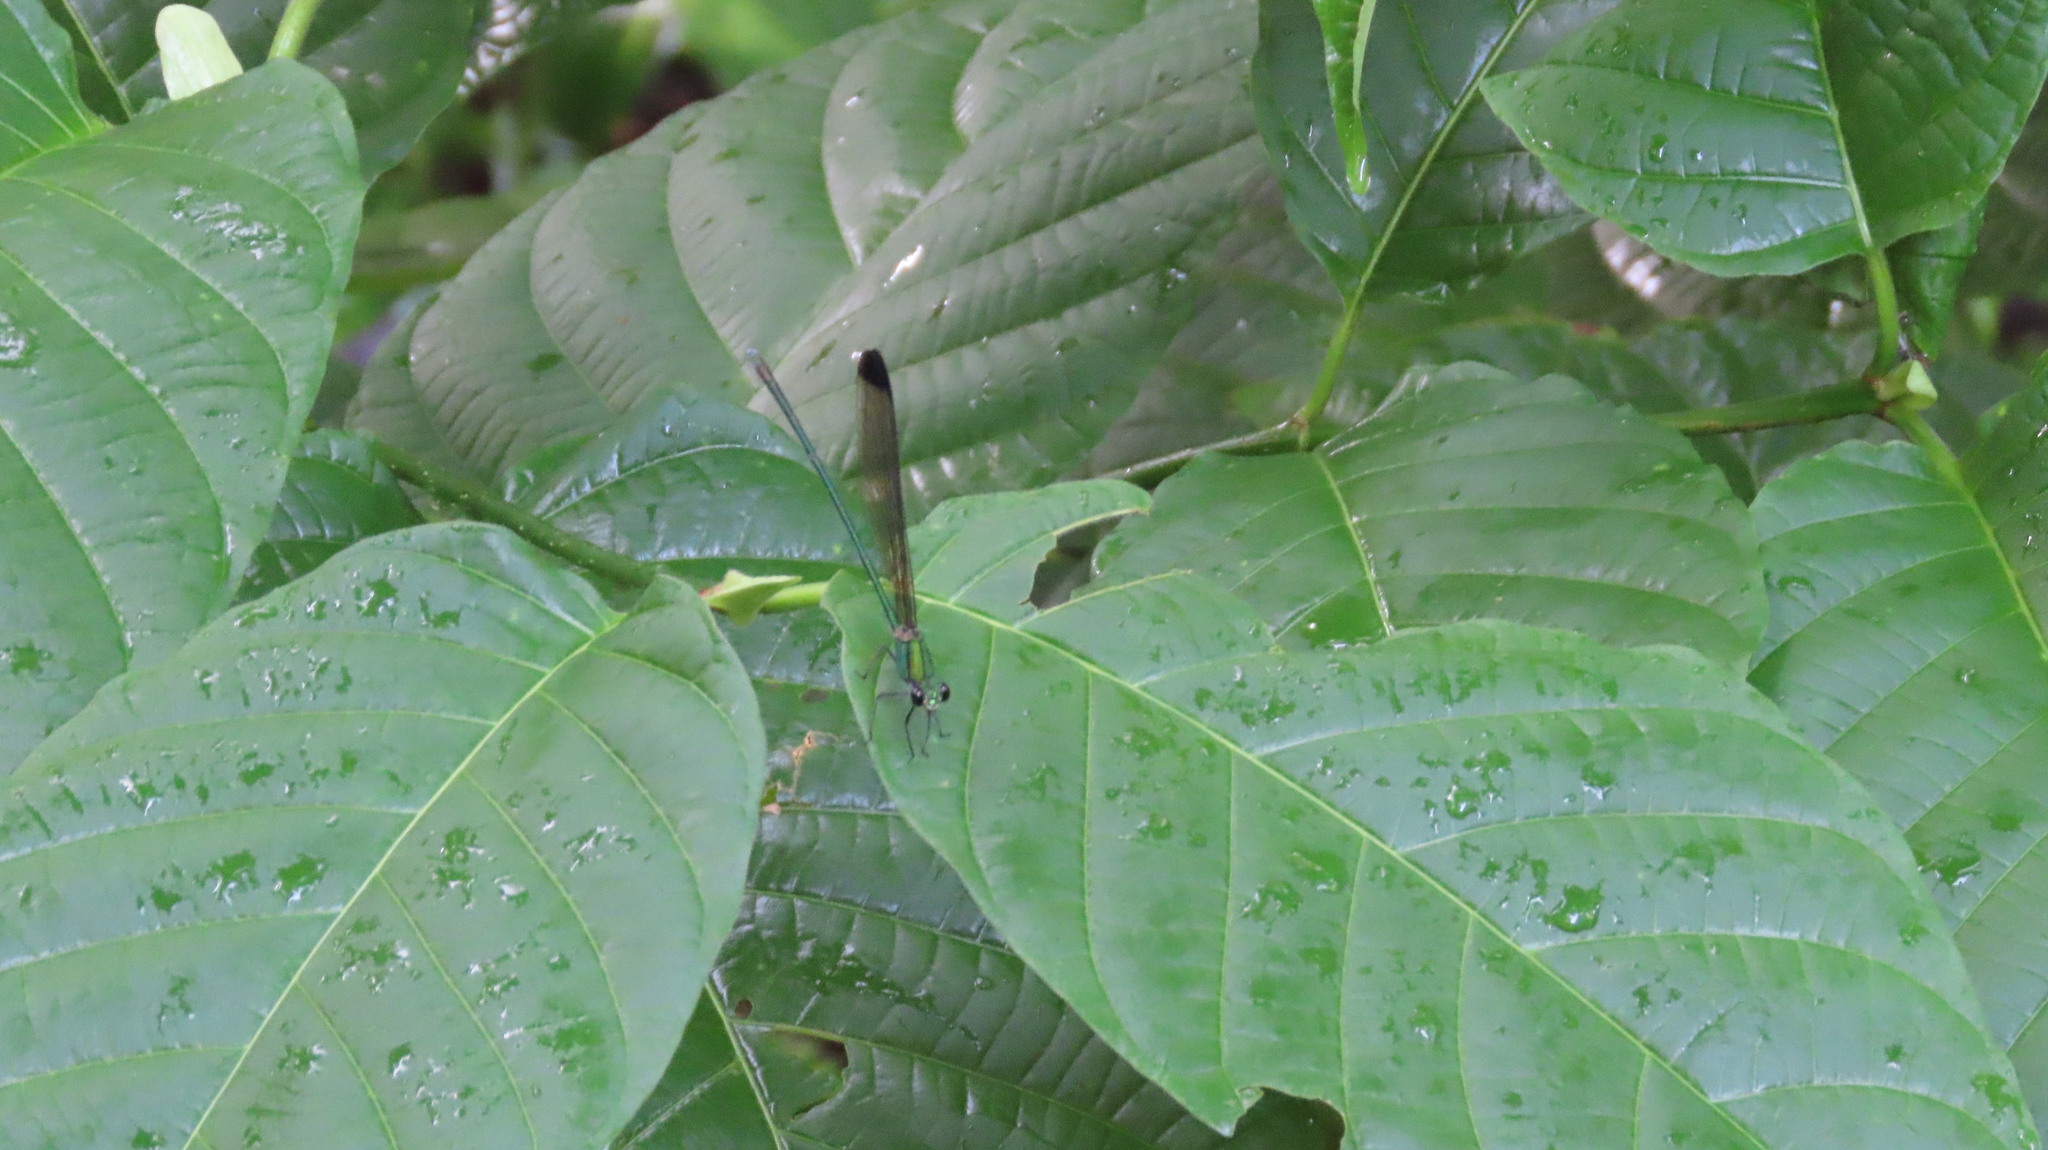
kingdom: Animalia
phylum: Arthropoda
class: Insecta
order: Odonata
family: Calopterygidae
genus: Vestalis
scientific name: Vestalis apicalis
